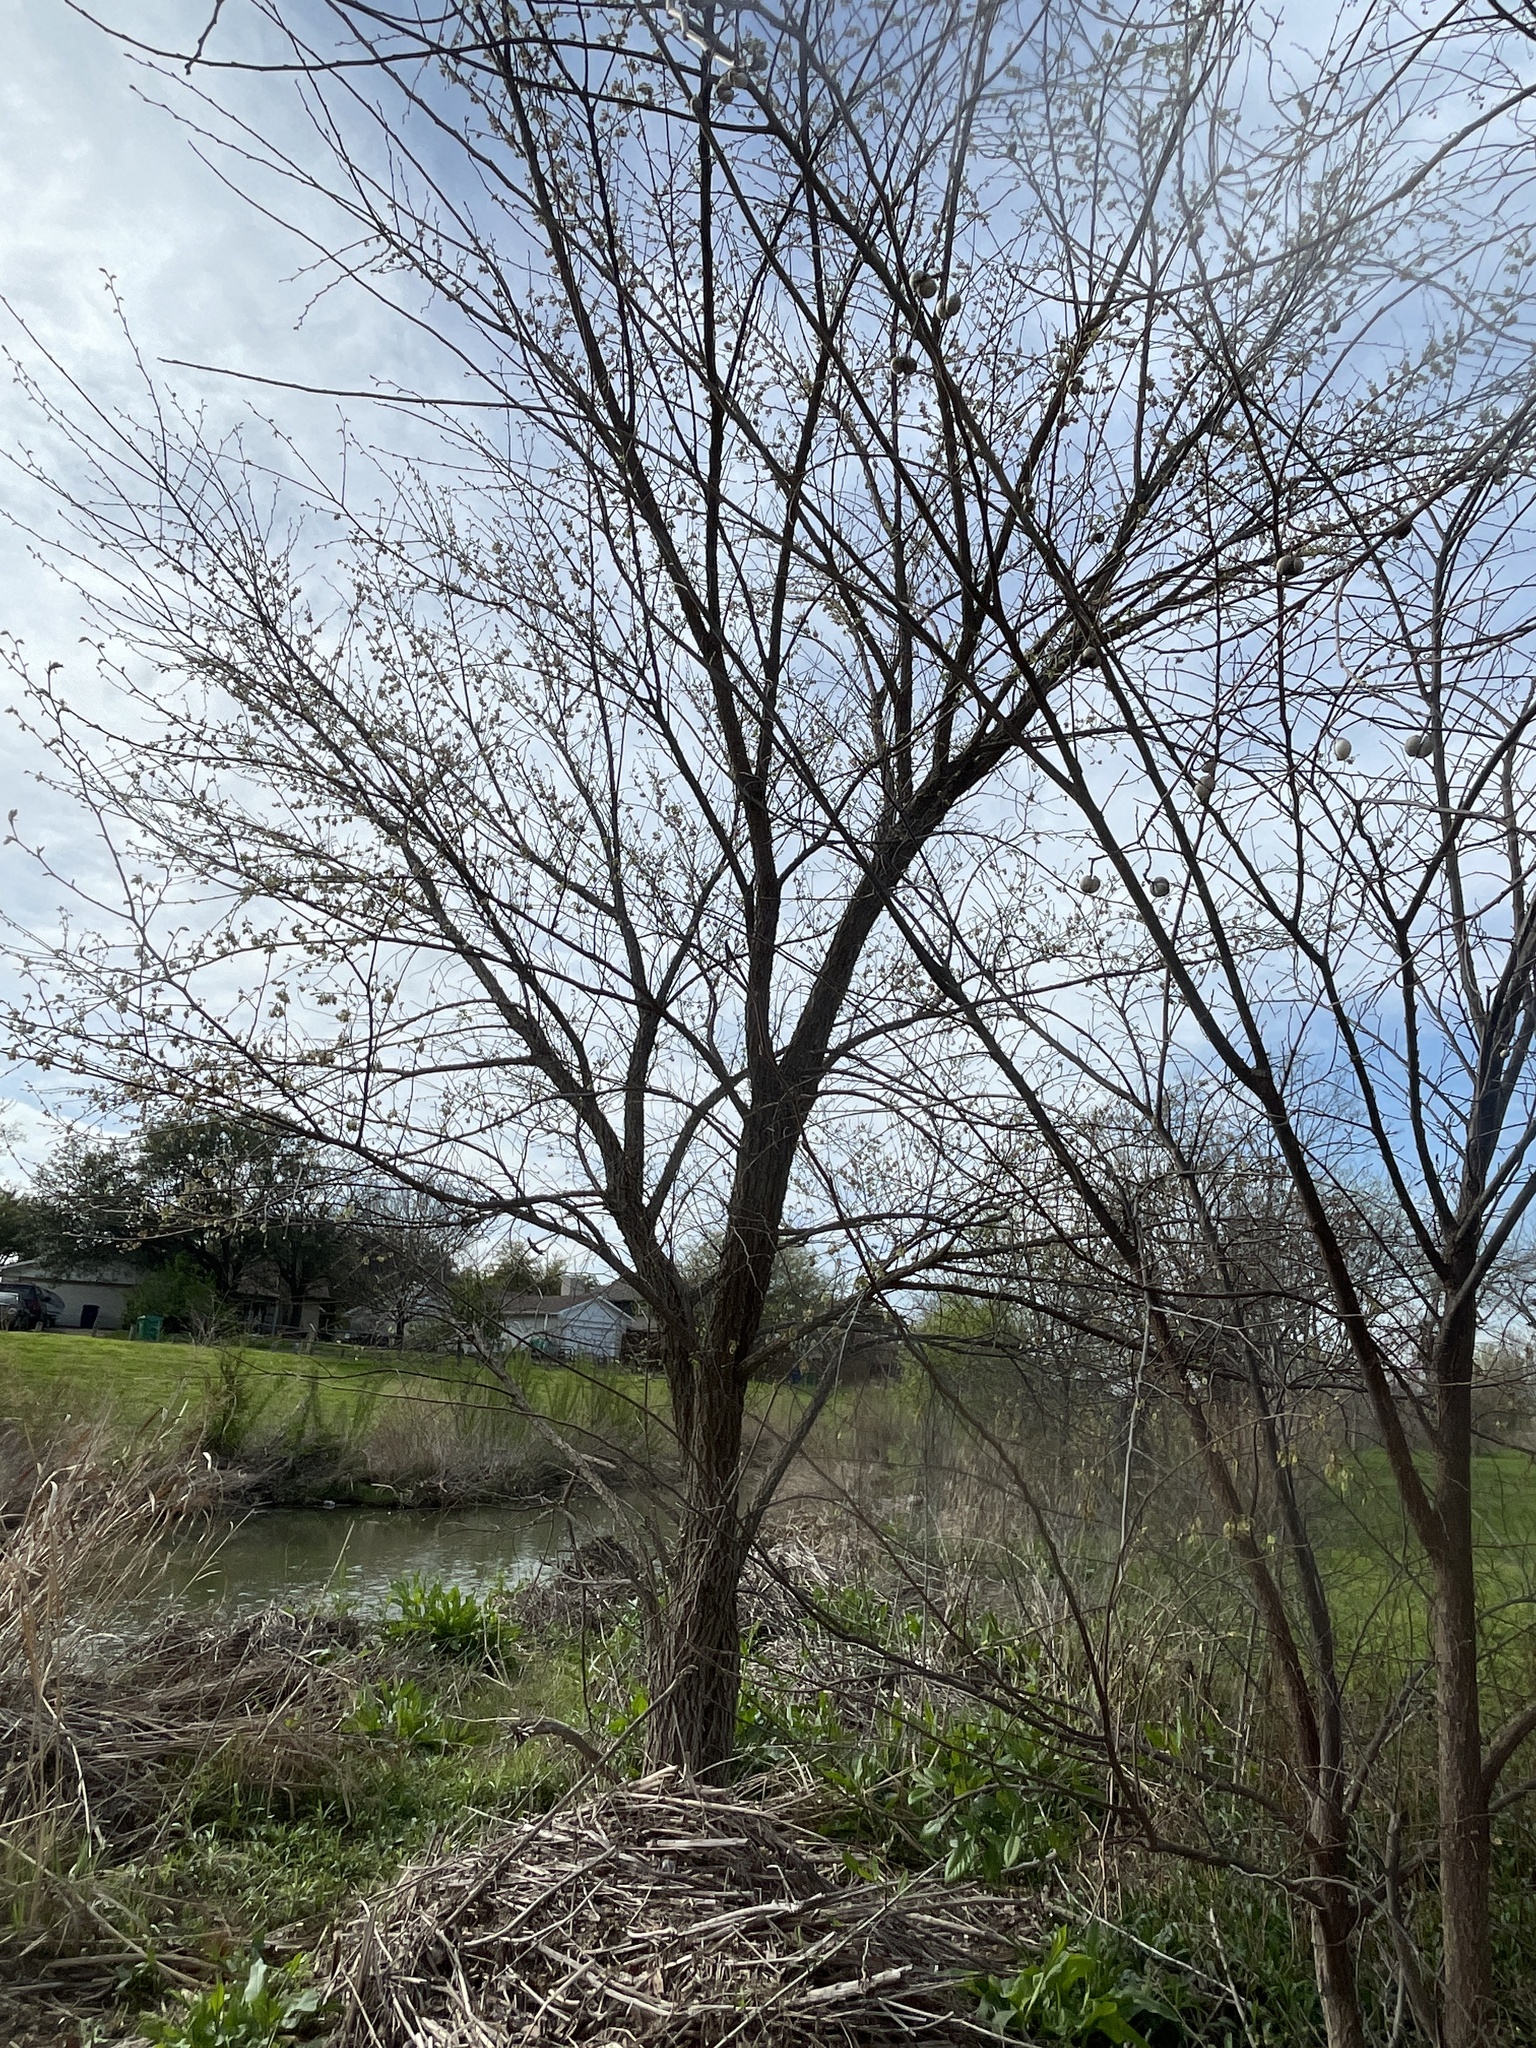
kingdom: Plantae
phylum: Tracheophyta
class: Magnoliopsida
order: Rosales
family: Ulmaceae
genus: Ulmus
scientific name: Ulmus crassifolia
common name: Basket elm
